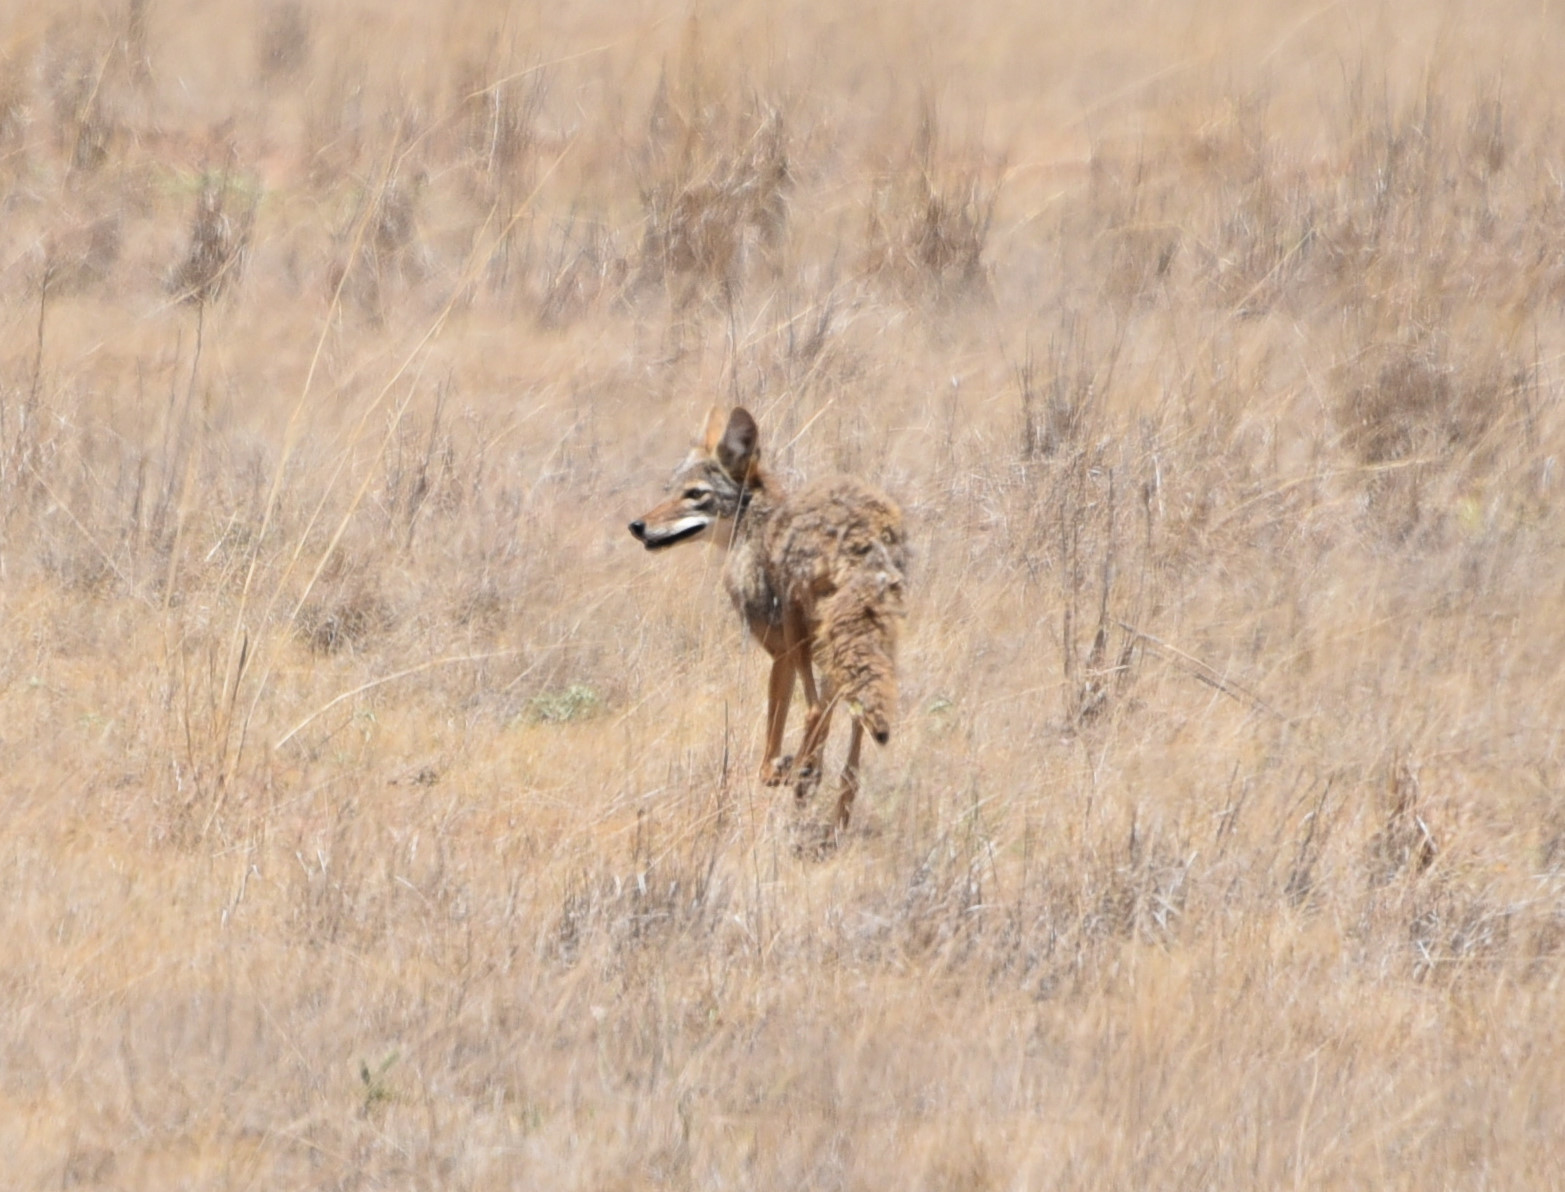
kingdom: Animalia
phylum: Chordata
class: Mammalia
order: Carnivora
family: Canidae
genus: Canis
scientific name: Canis latrans
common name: Coyote
